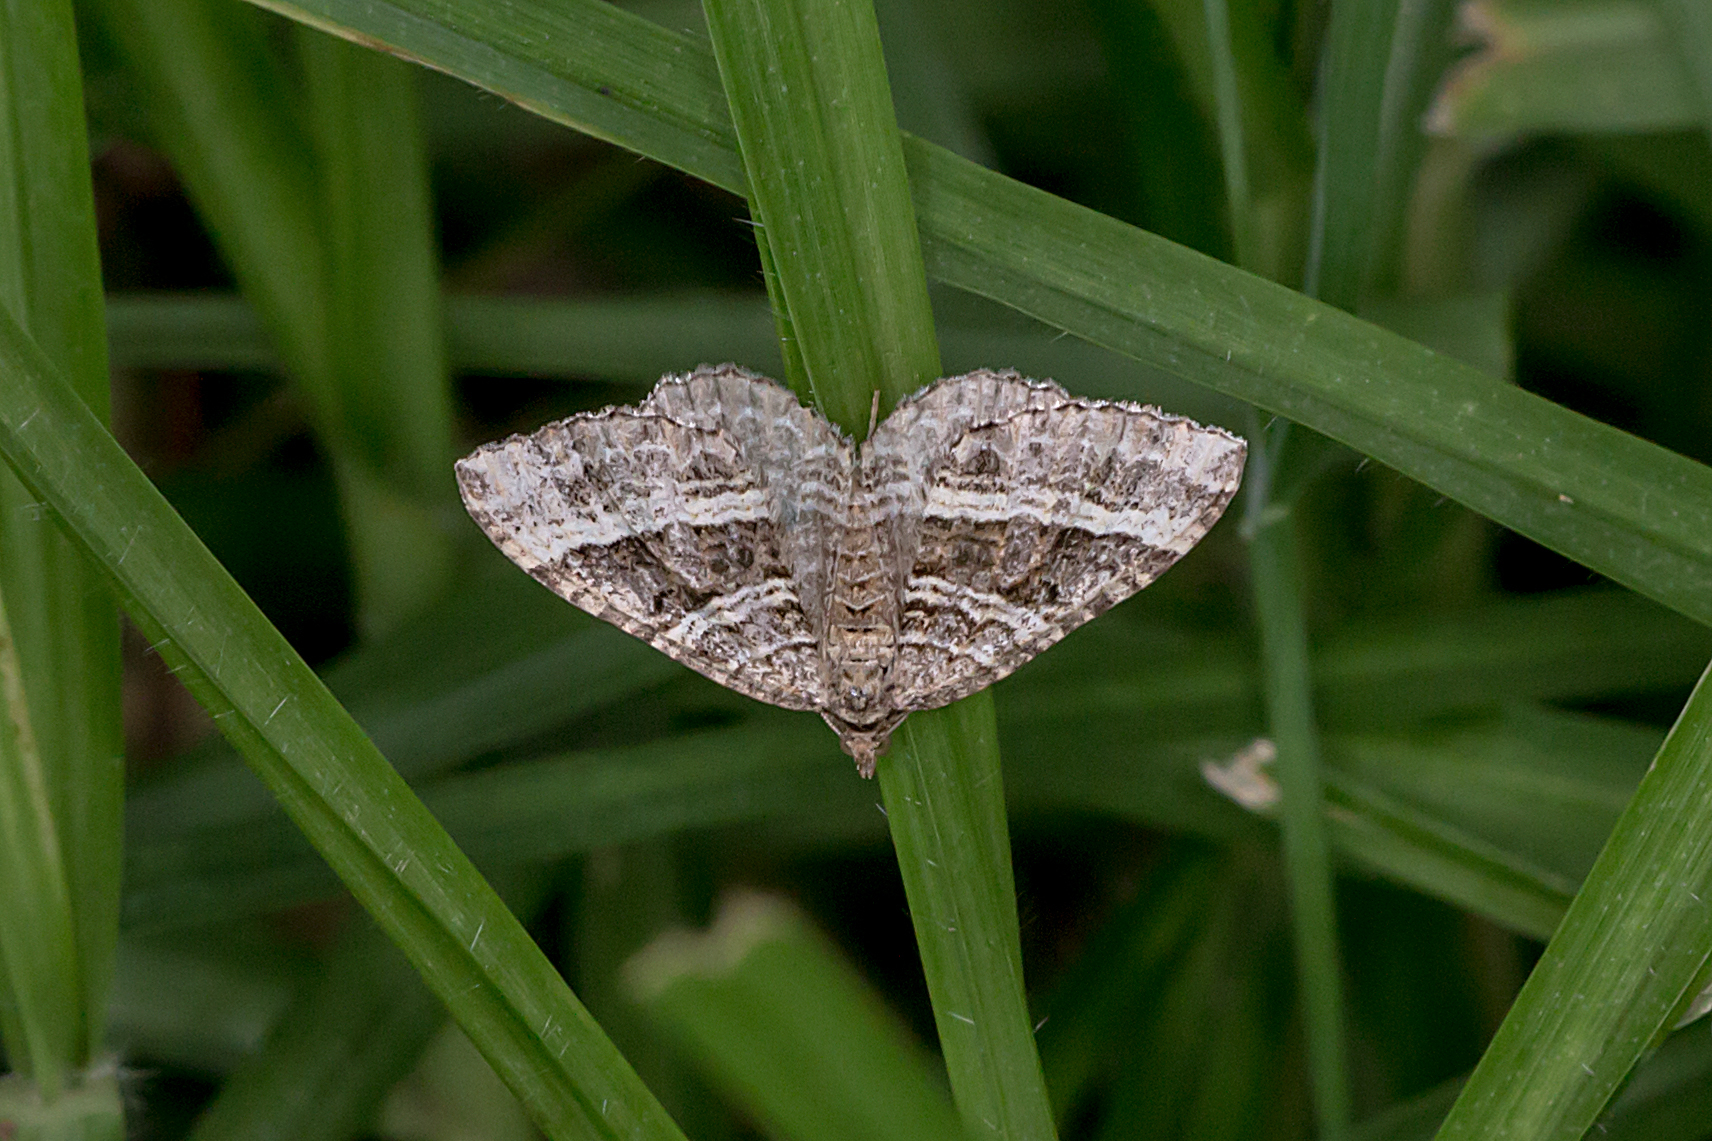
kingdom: Animalia
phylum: Arthropoda
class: Insecta
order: Lepidoptera
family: Geometridae
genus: Chrysolarentia
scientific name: Chrysolarentia subrectaria
